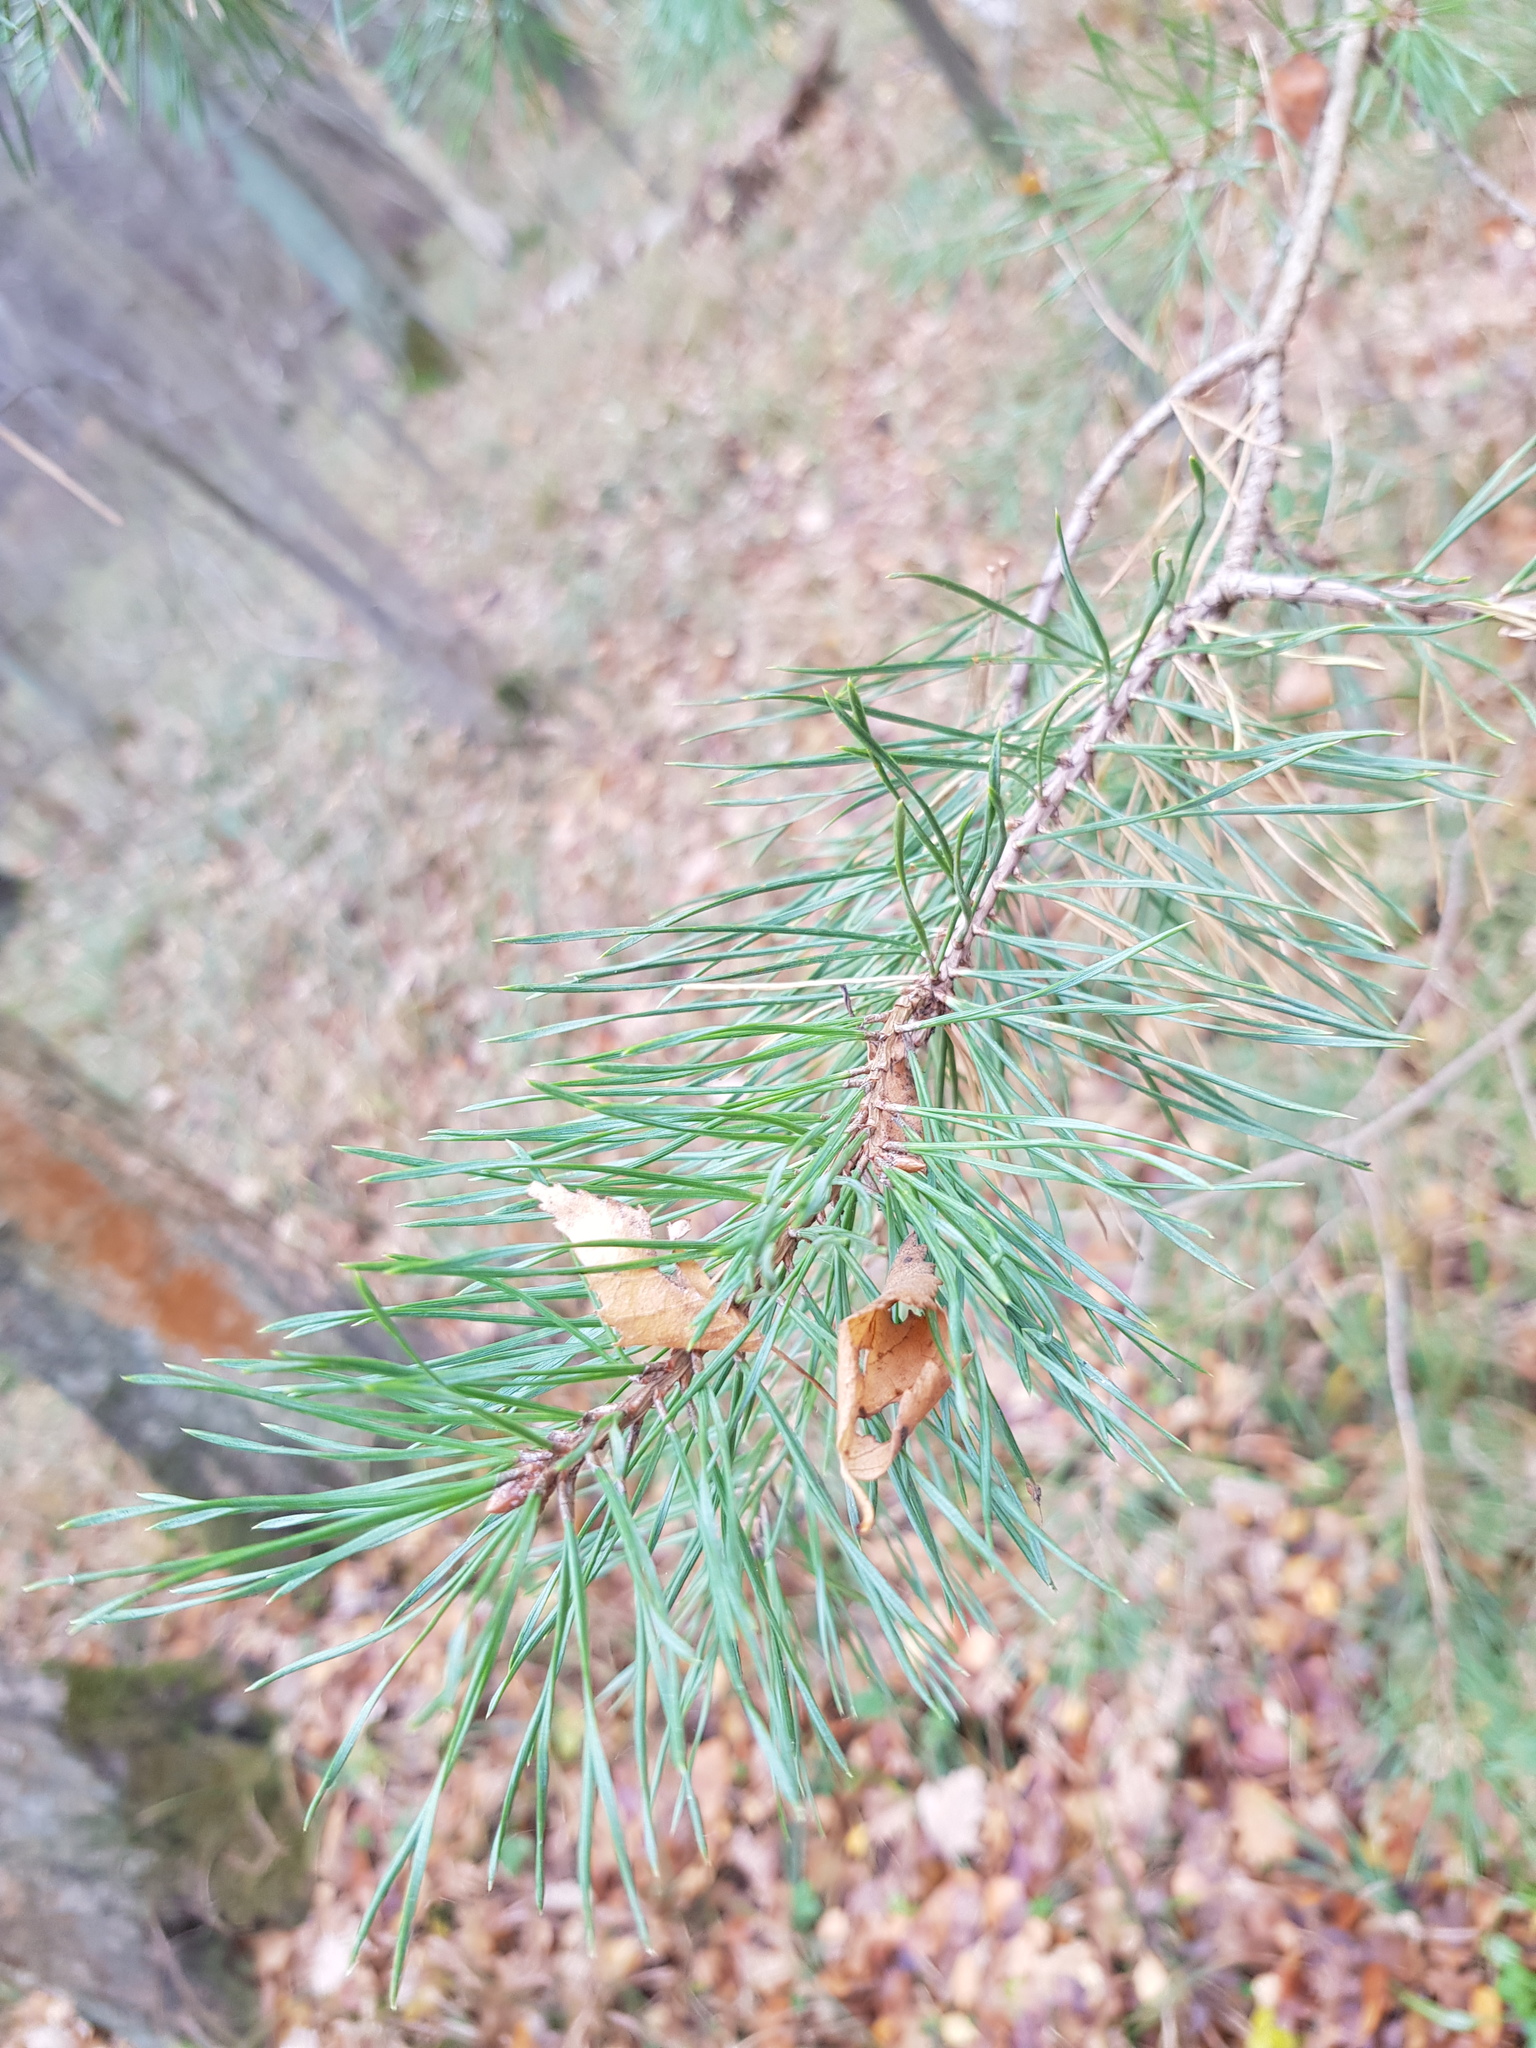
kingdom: Plantae
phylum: Tracheophyta
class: Pinopsida
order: Pinales
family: Pinaceae
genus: Pinus
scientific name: Pinus sylvestris
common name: Scots pine
